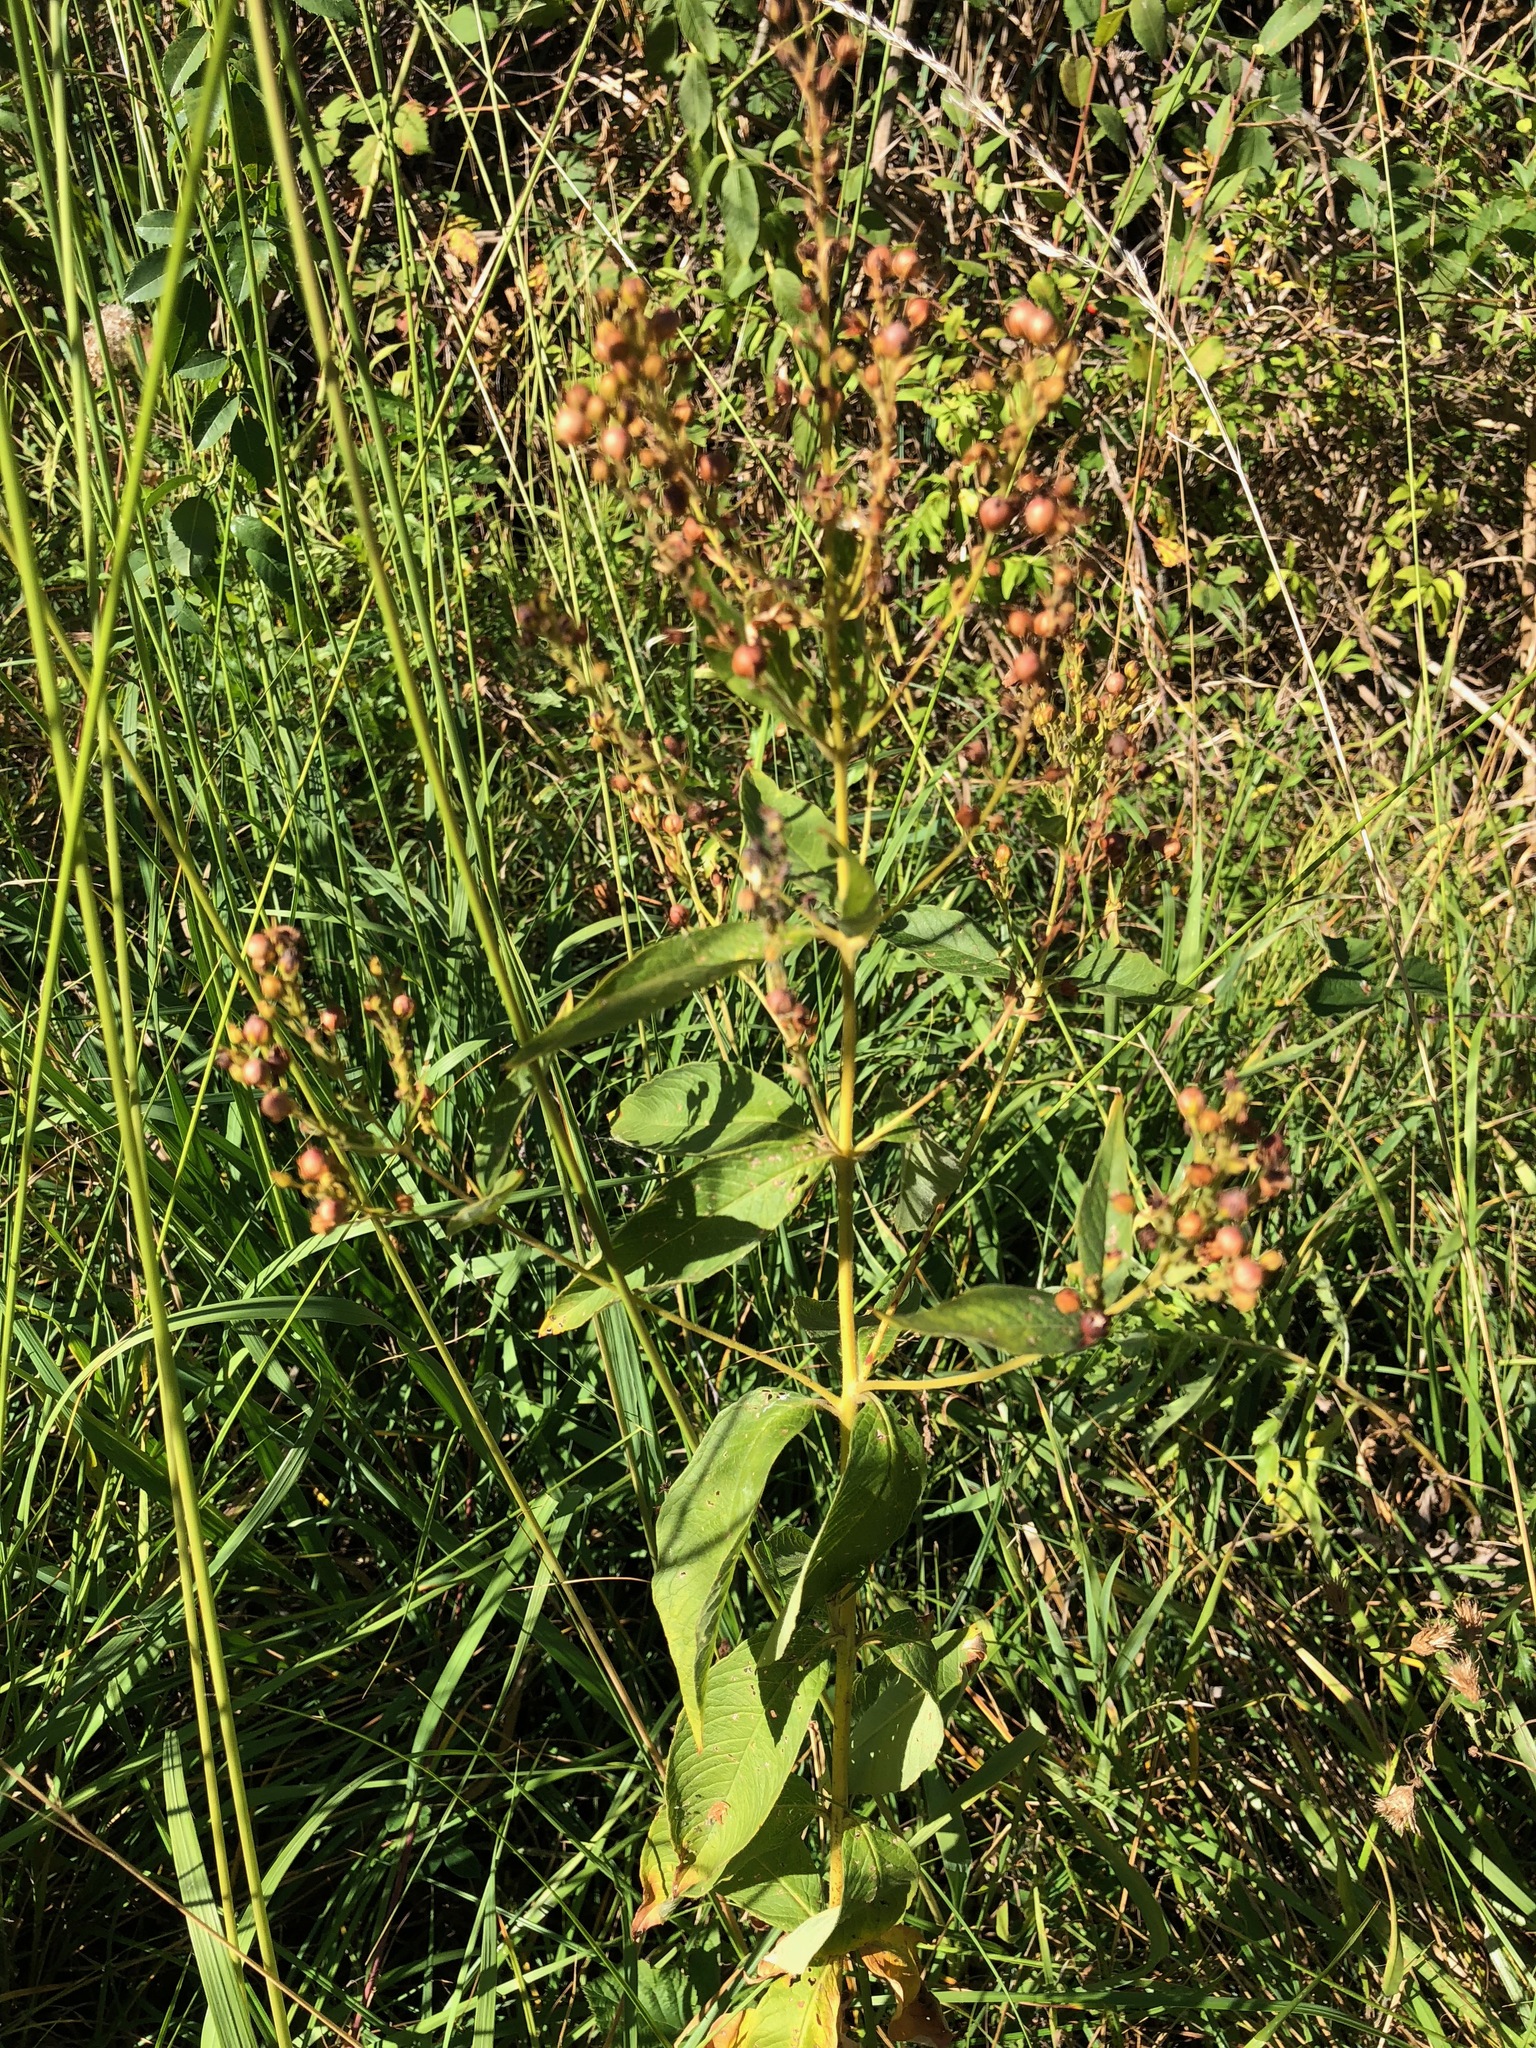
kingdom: Plantae
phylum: Tracheophyta
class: Magnoliopsida
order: Ericales
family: Primulaceae
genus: Lysimachia
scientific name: Lysimachia vulgaris
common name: Yellow loosestrife
